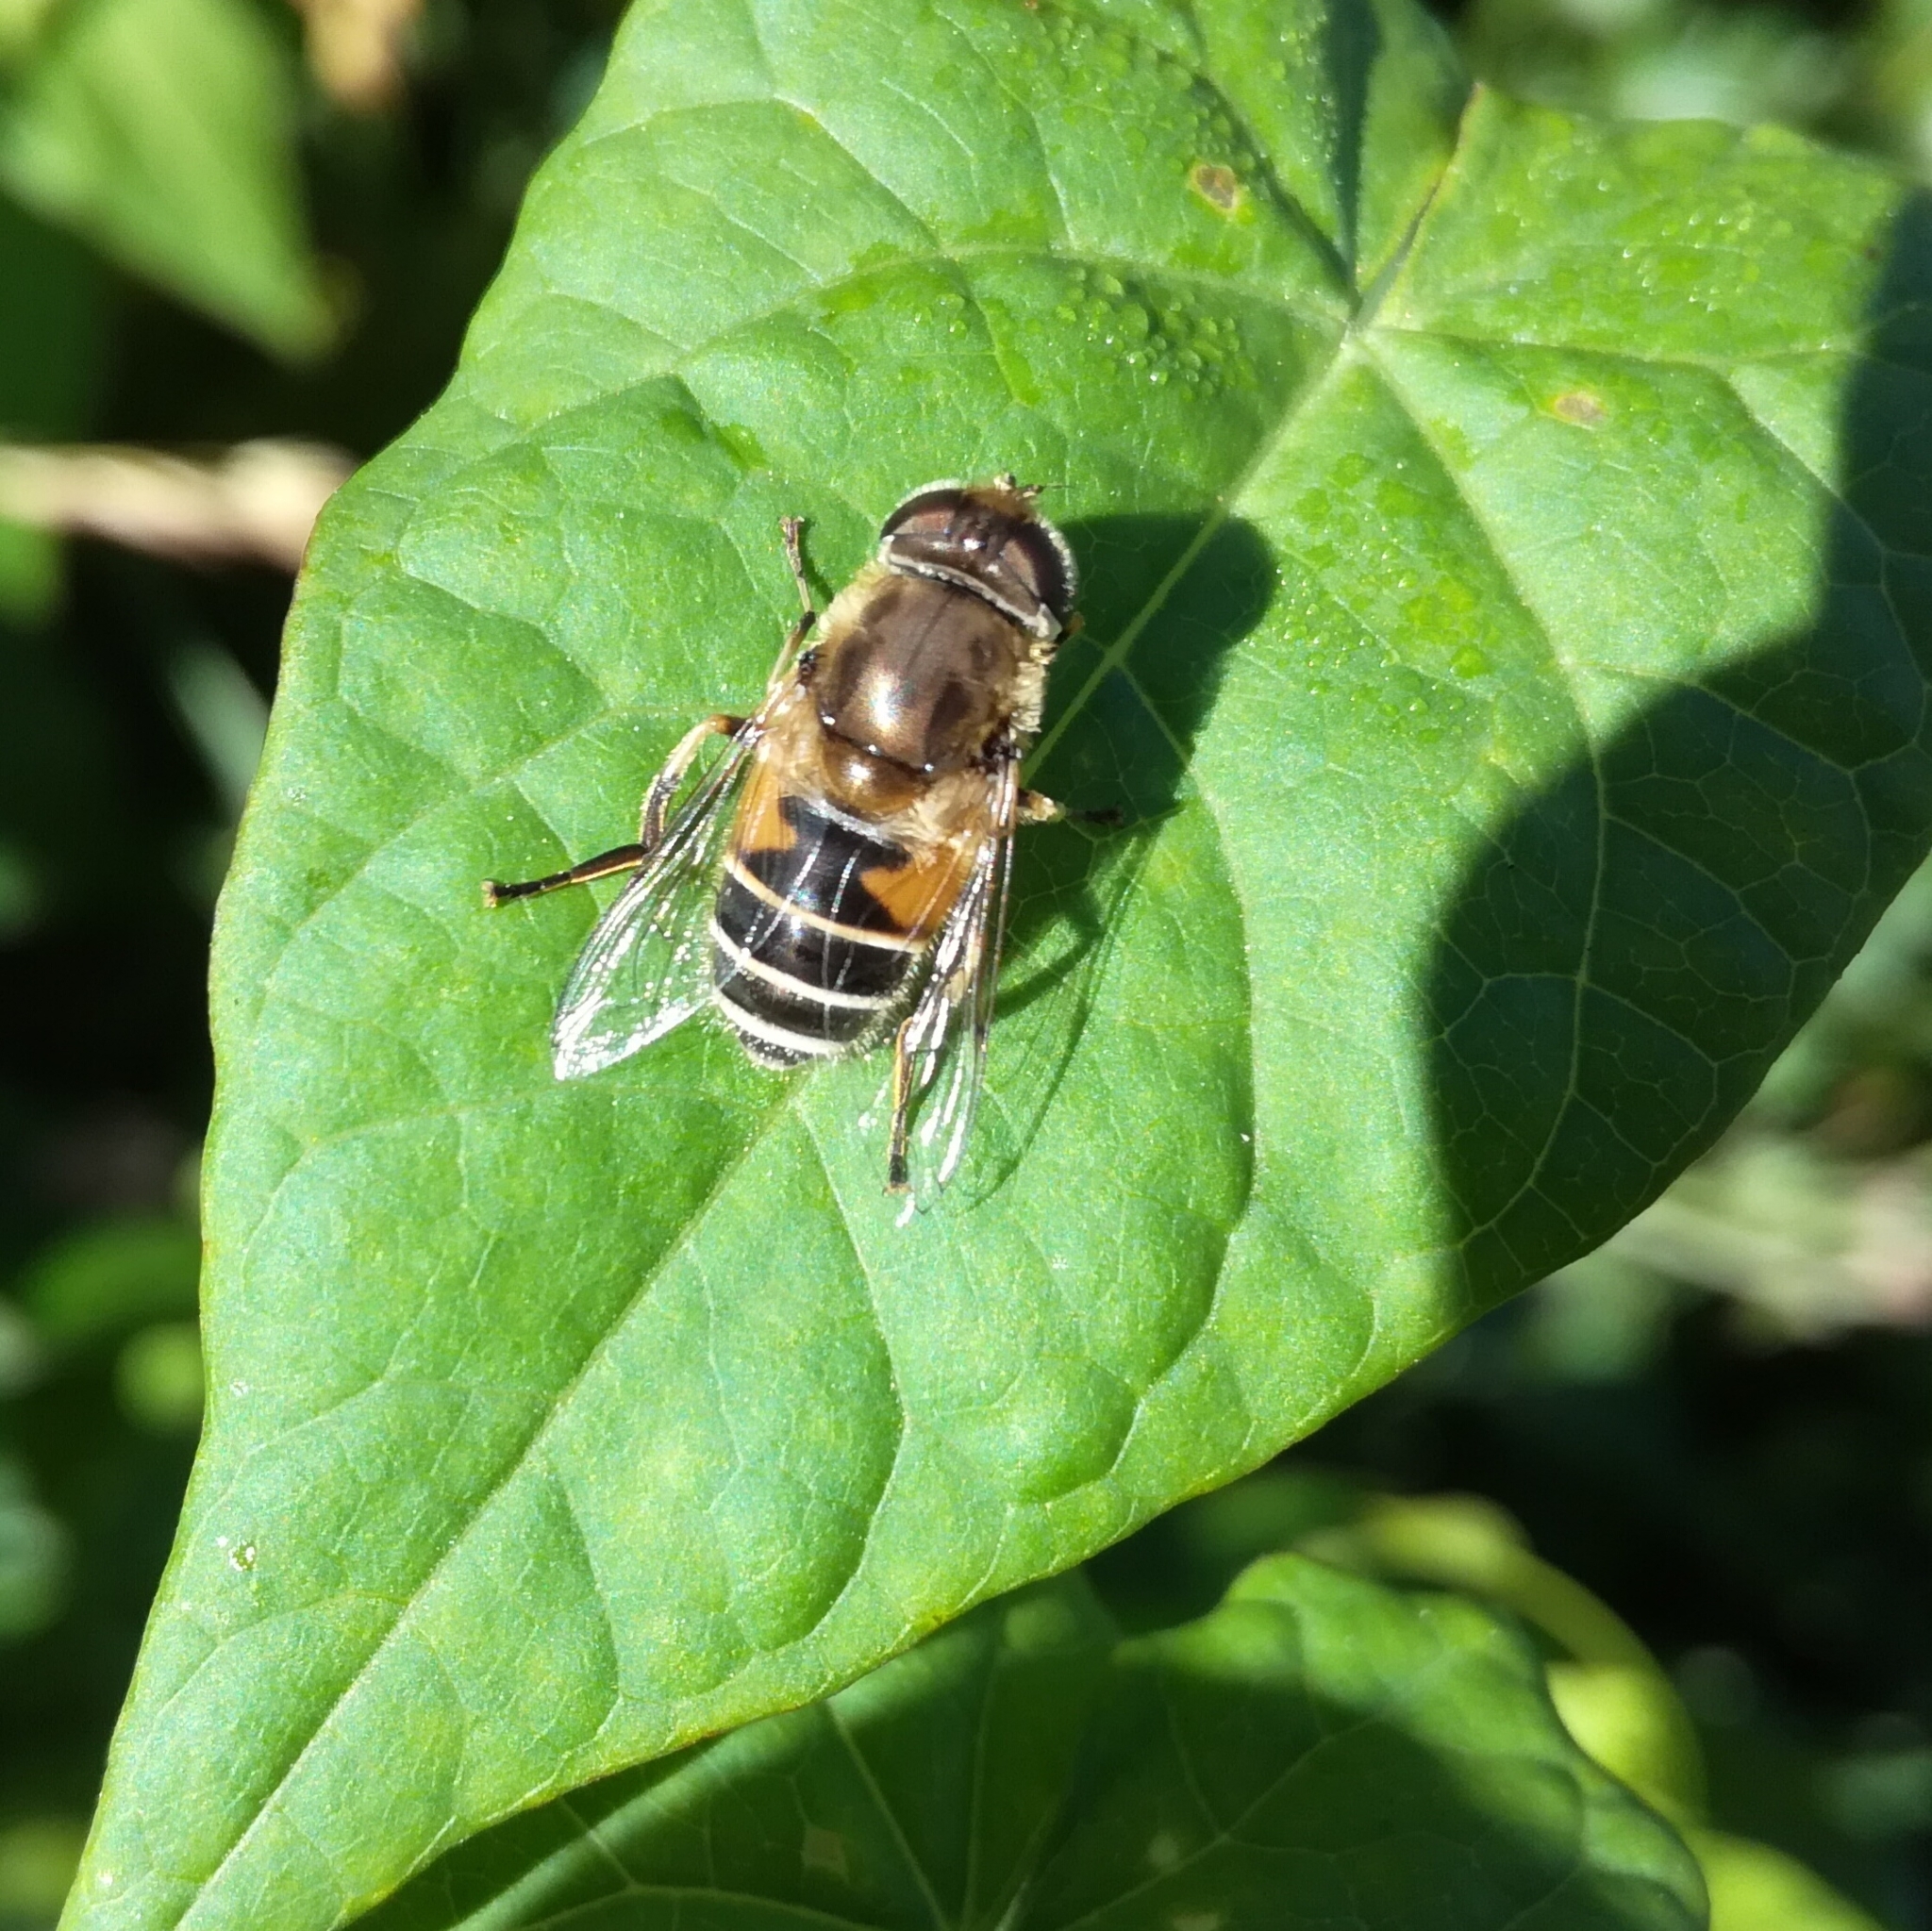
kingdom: Animalia
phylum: Arthropoda
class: Insecta
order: Diptera
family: Syrphidae
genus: Eristalis
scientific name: Eristalis arbustorum
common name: Hover fly
